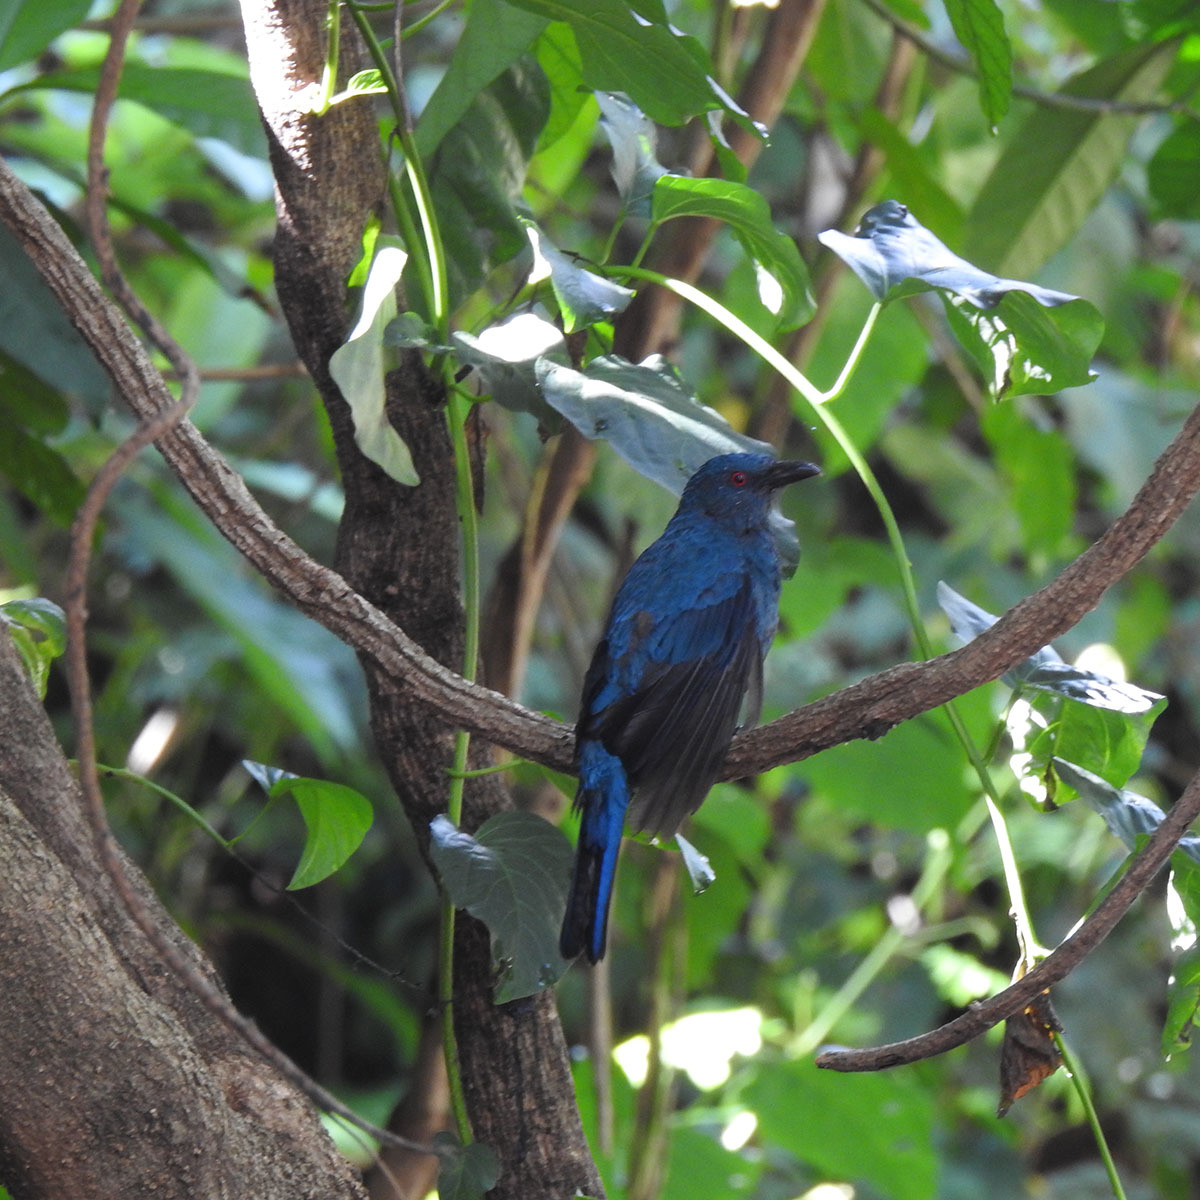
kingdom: Animalia
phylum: Chordata
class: Aves
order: Passeriformes
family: Irenidae
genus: Irena
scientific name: Irena puella
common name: Asian fairy-bluebird
